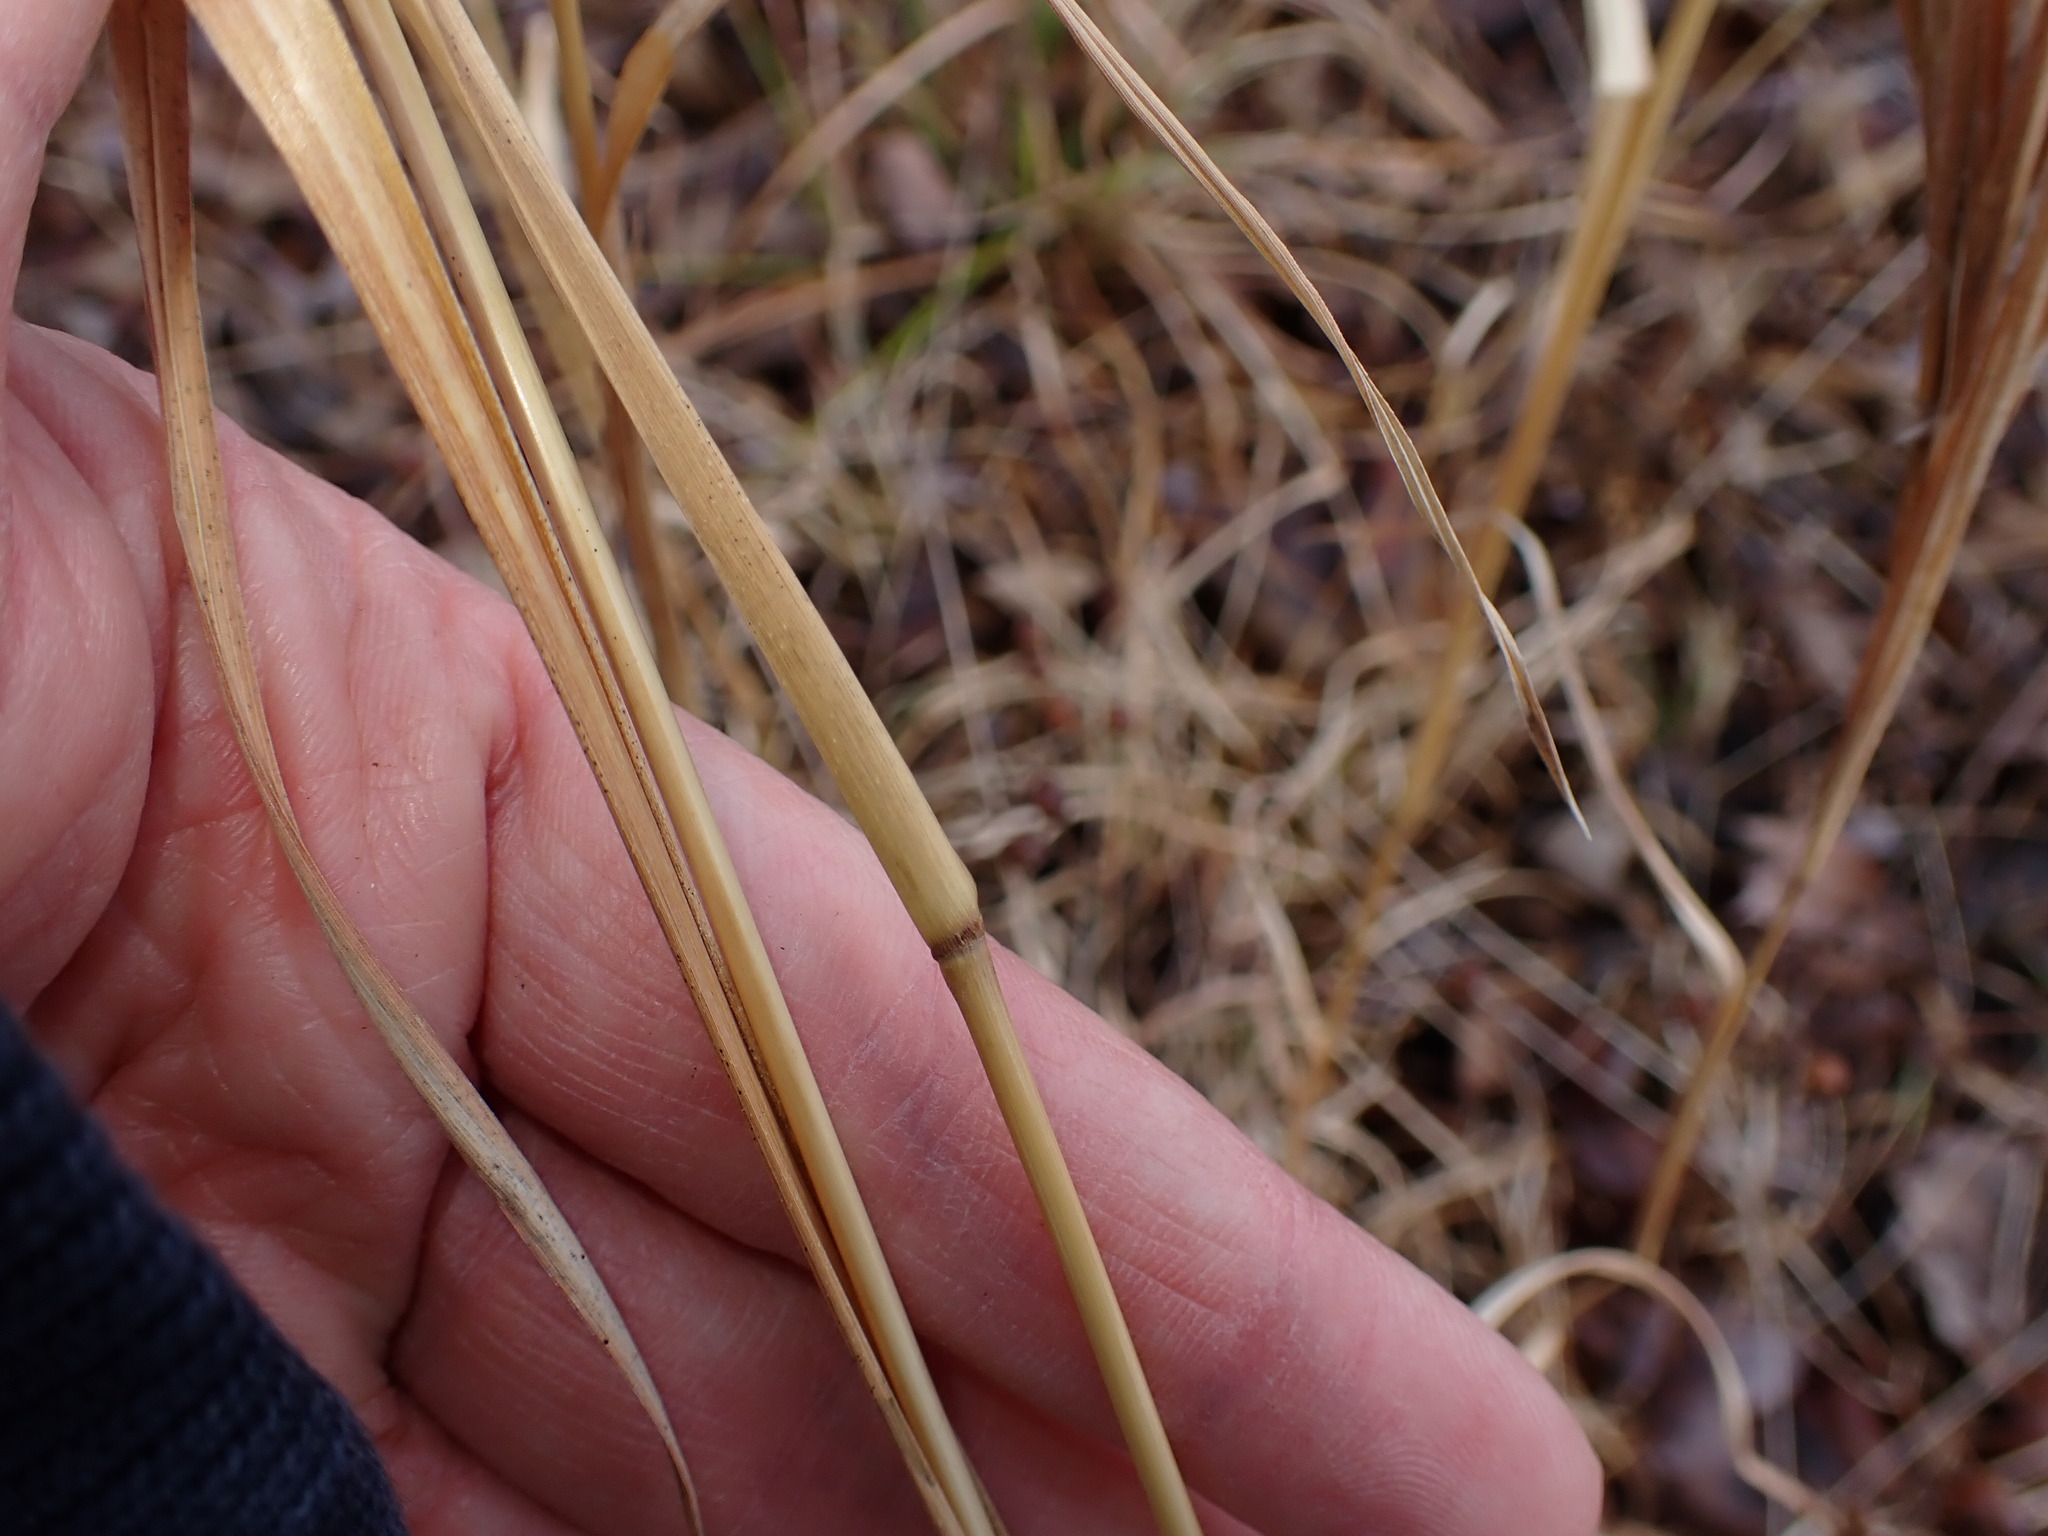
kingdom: Plantae
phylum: Tracheophyta
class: Liliopsida
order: Poales
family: Poaceae
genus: Andropogon
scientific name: Andropogon glomeratus
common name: Bushy beard grass
